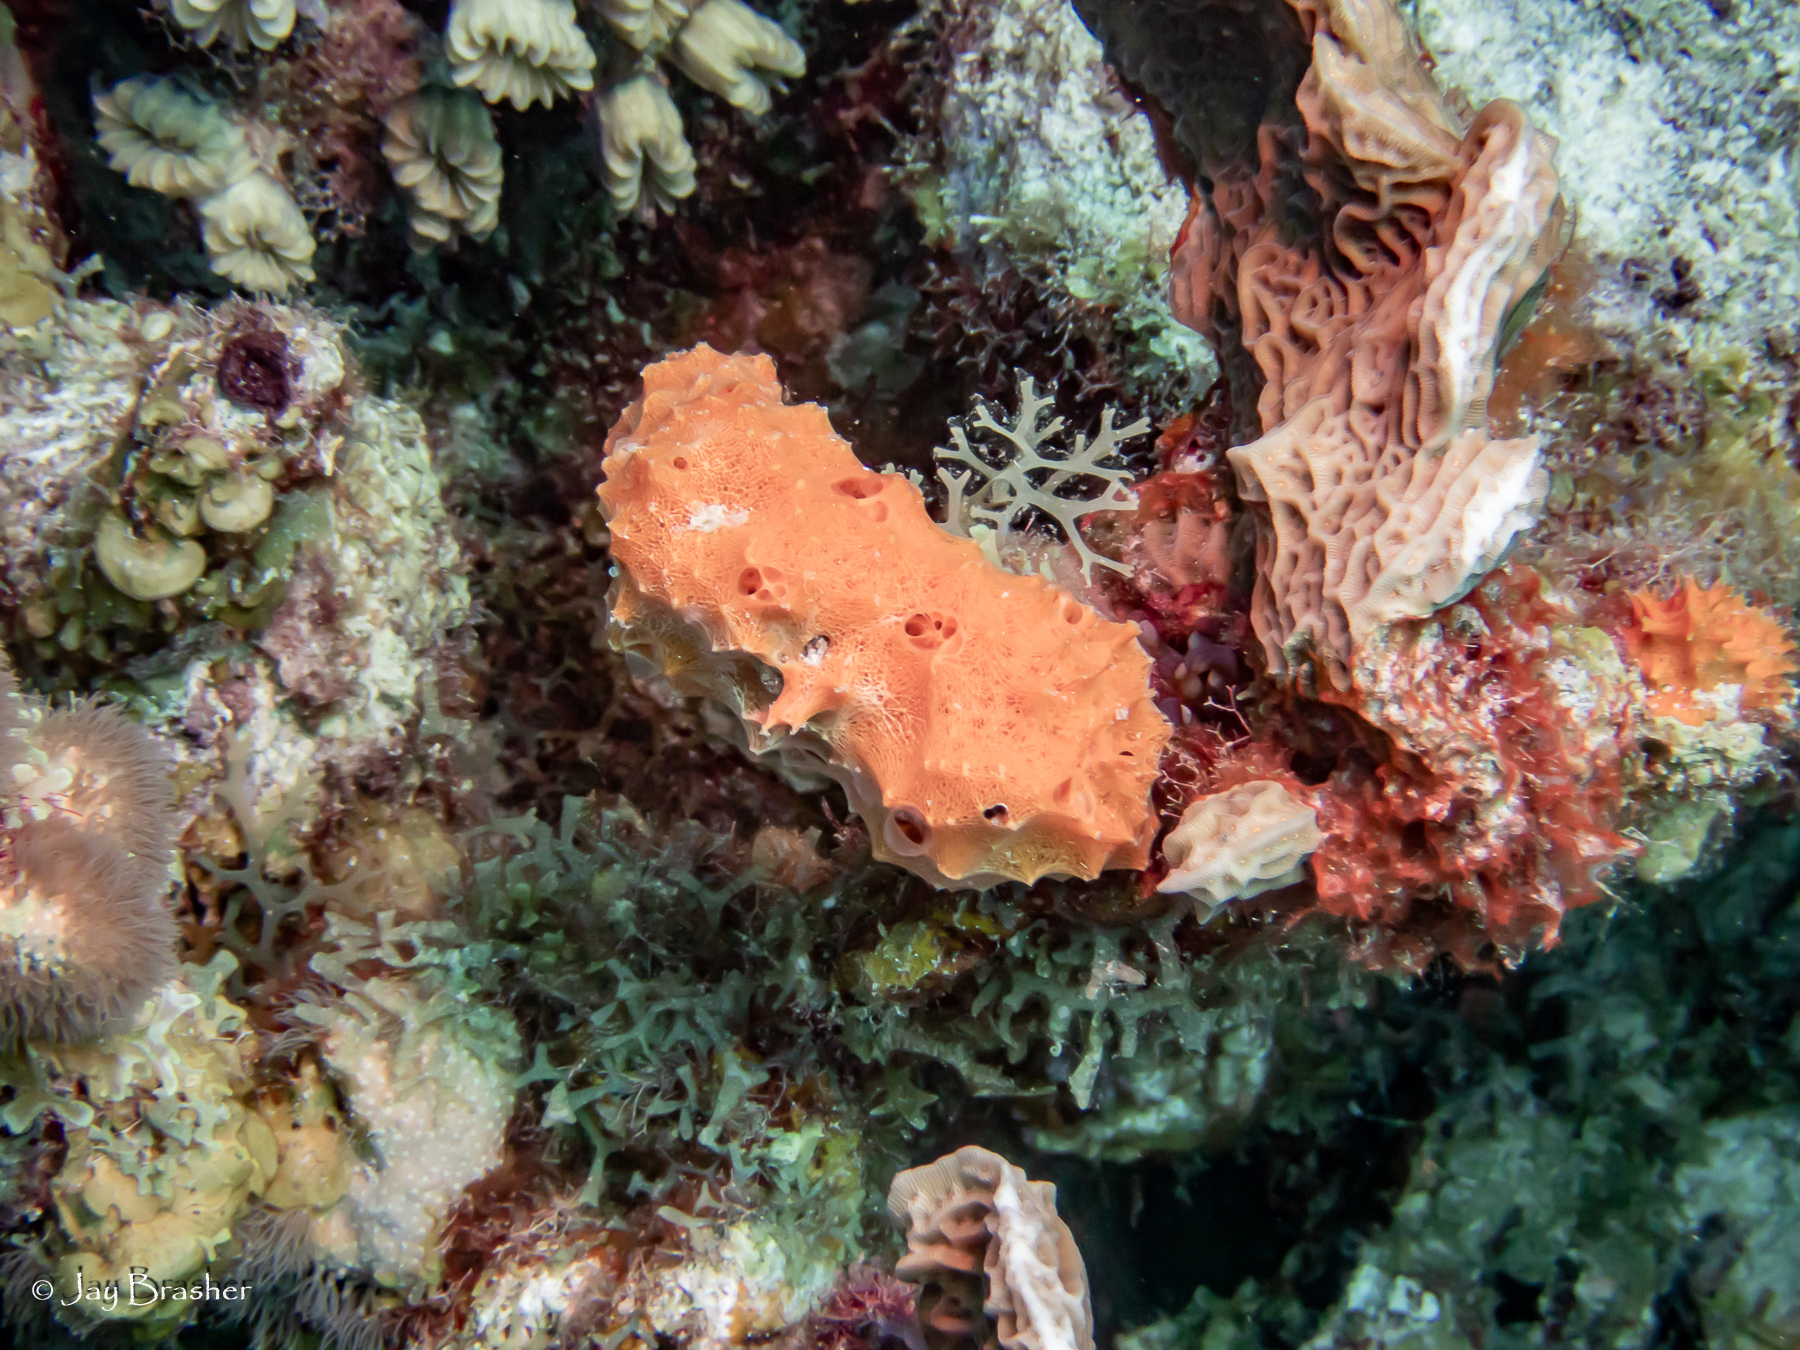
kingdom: Animalia
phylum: Porifera
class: Demospongiae
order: Scopalinida
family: Scopalinidae
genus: Scopalina
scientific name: Scopalina ruetzleri
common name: Orange lumpy encrusting sponge
